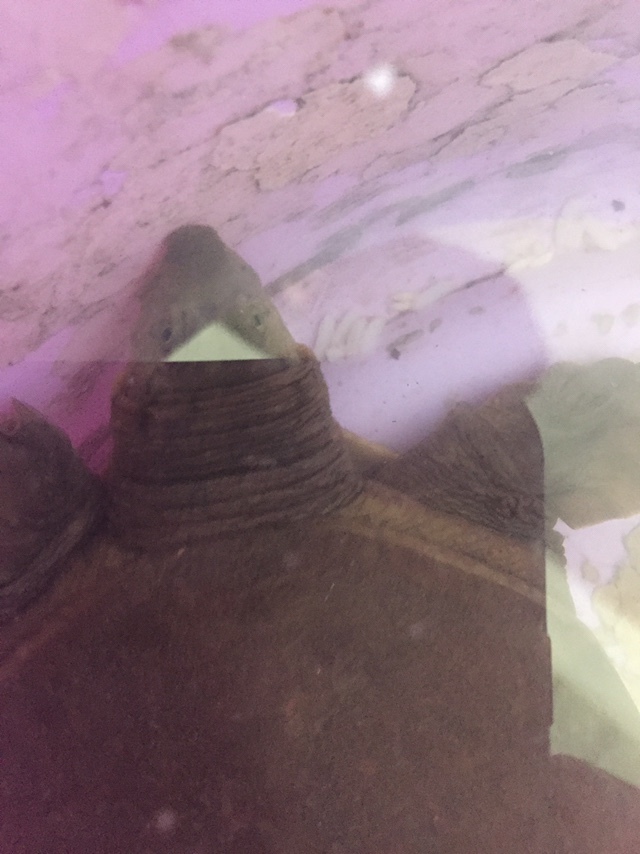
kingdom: Animalia
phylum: Chordata
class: Testudines
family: Trionychidae
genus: Lissemys
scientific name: Lissemys punctata
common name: Indian flap-shelled turtle
